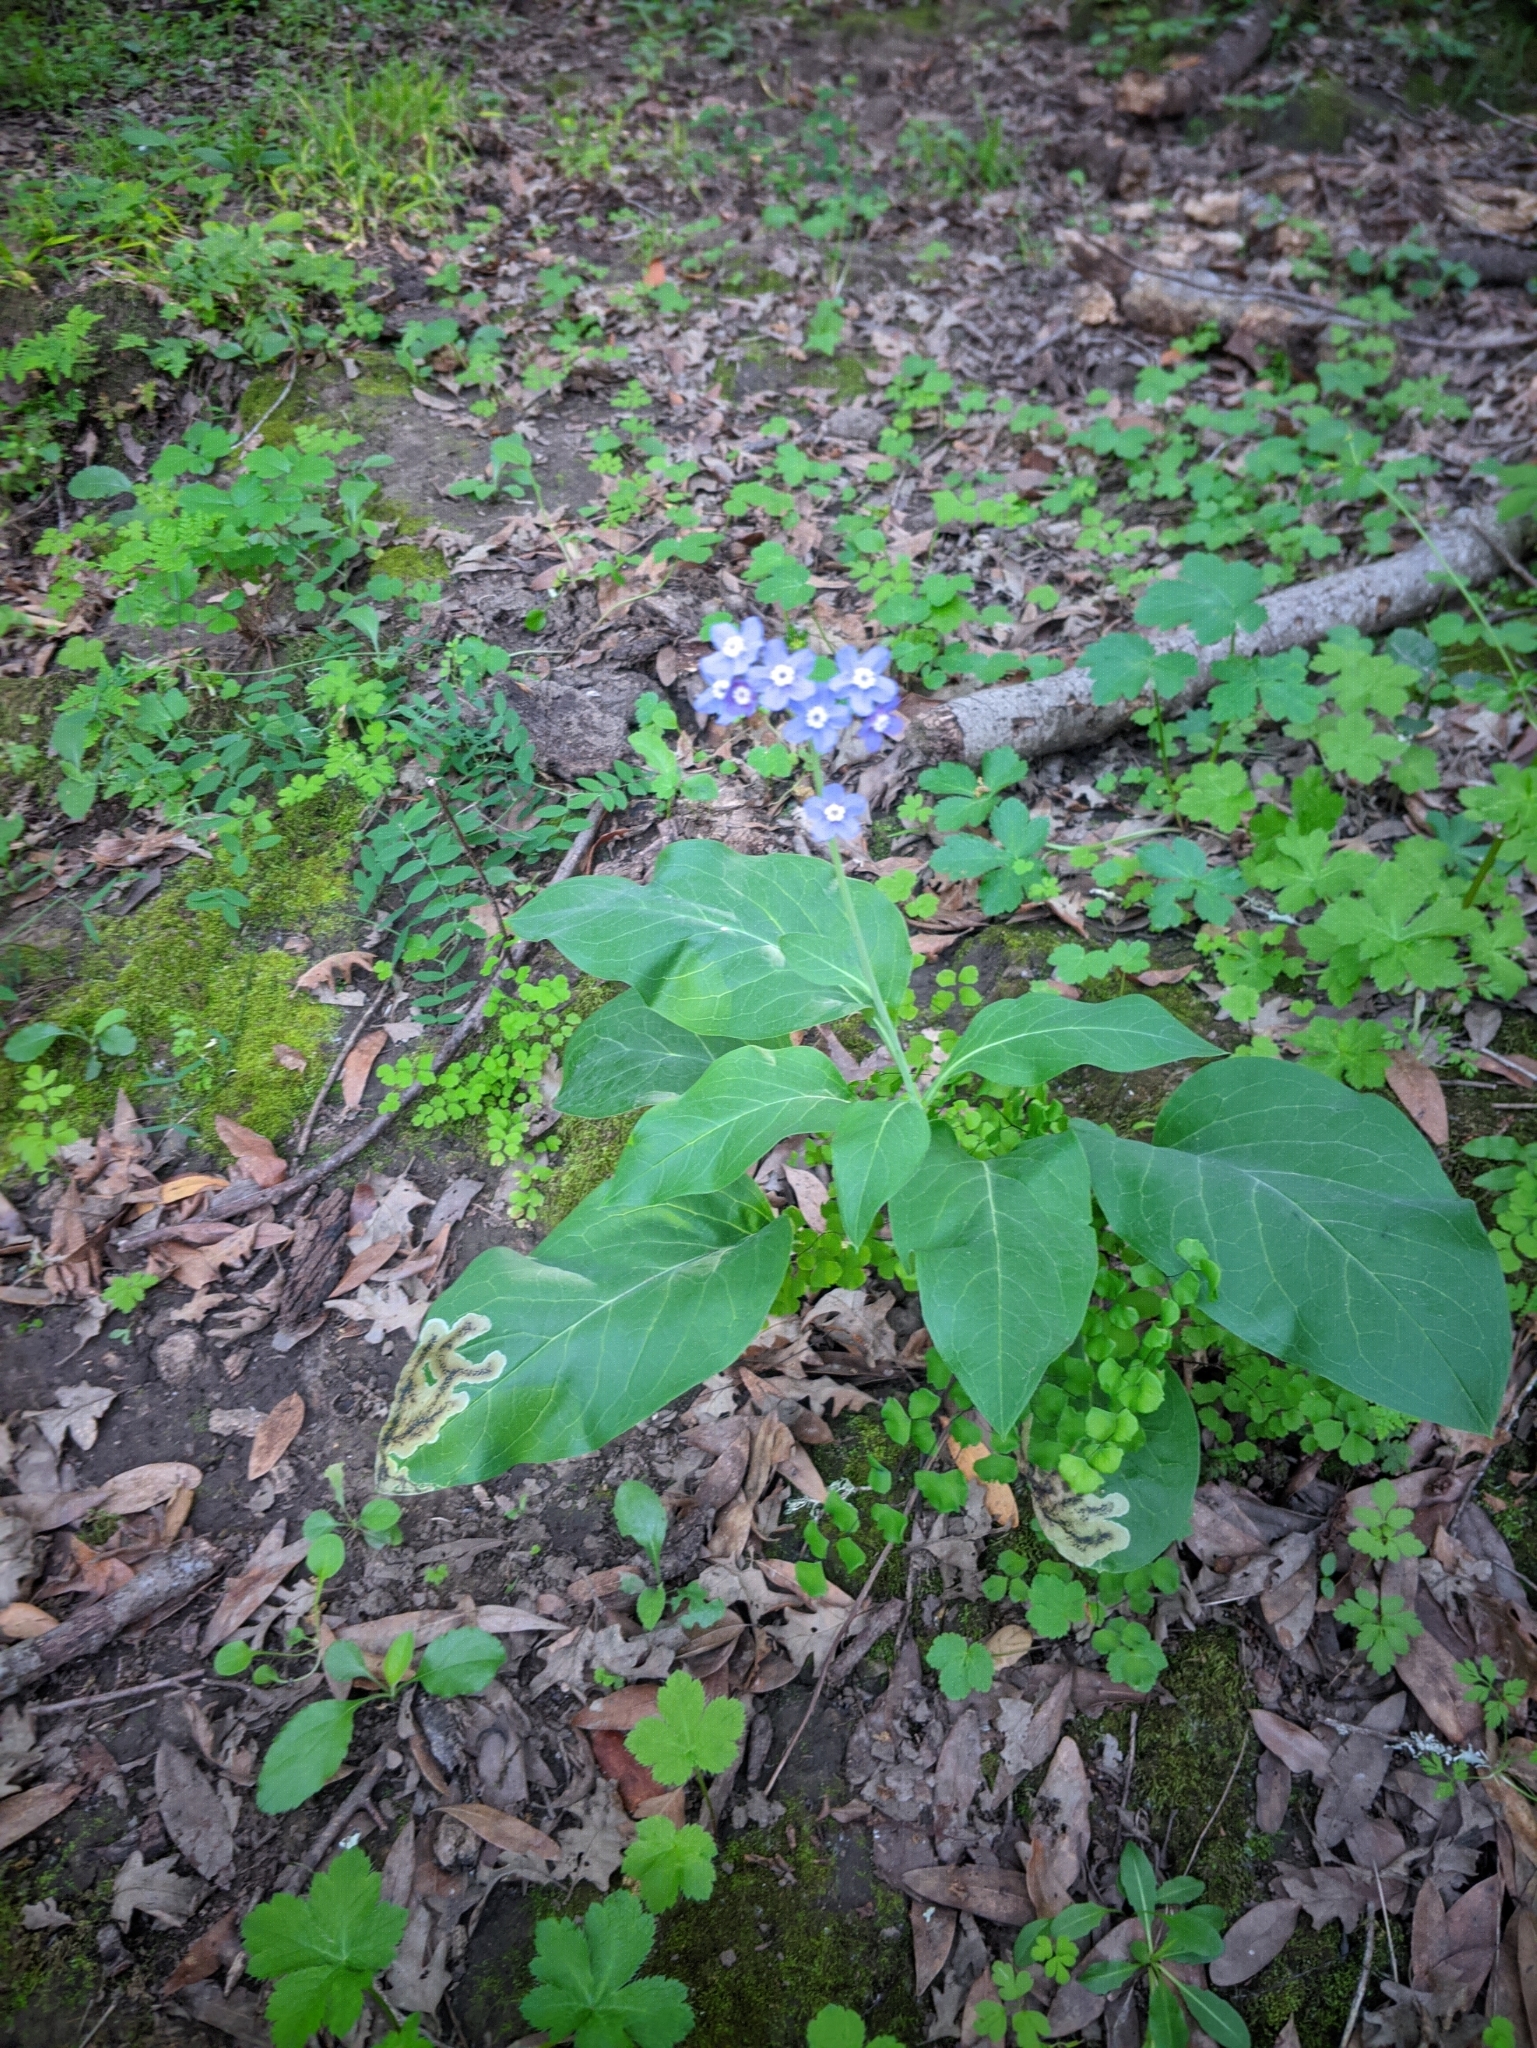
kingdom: Plantae
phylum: Tracheophyta
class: Magnoliopsida
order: Boraginales
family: Boraginaceae
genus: Adelinia
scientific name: Adelinia grande
